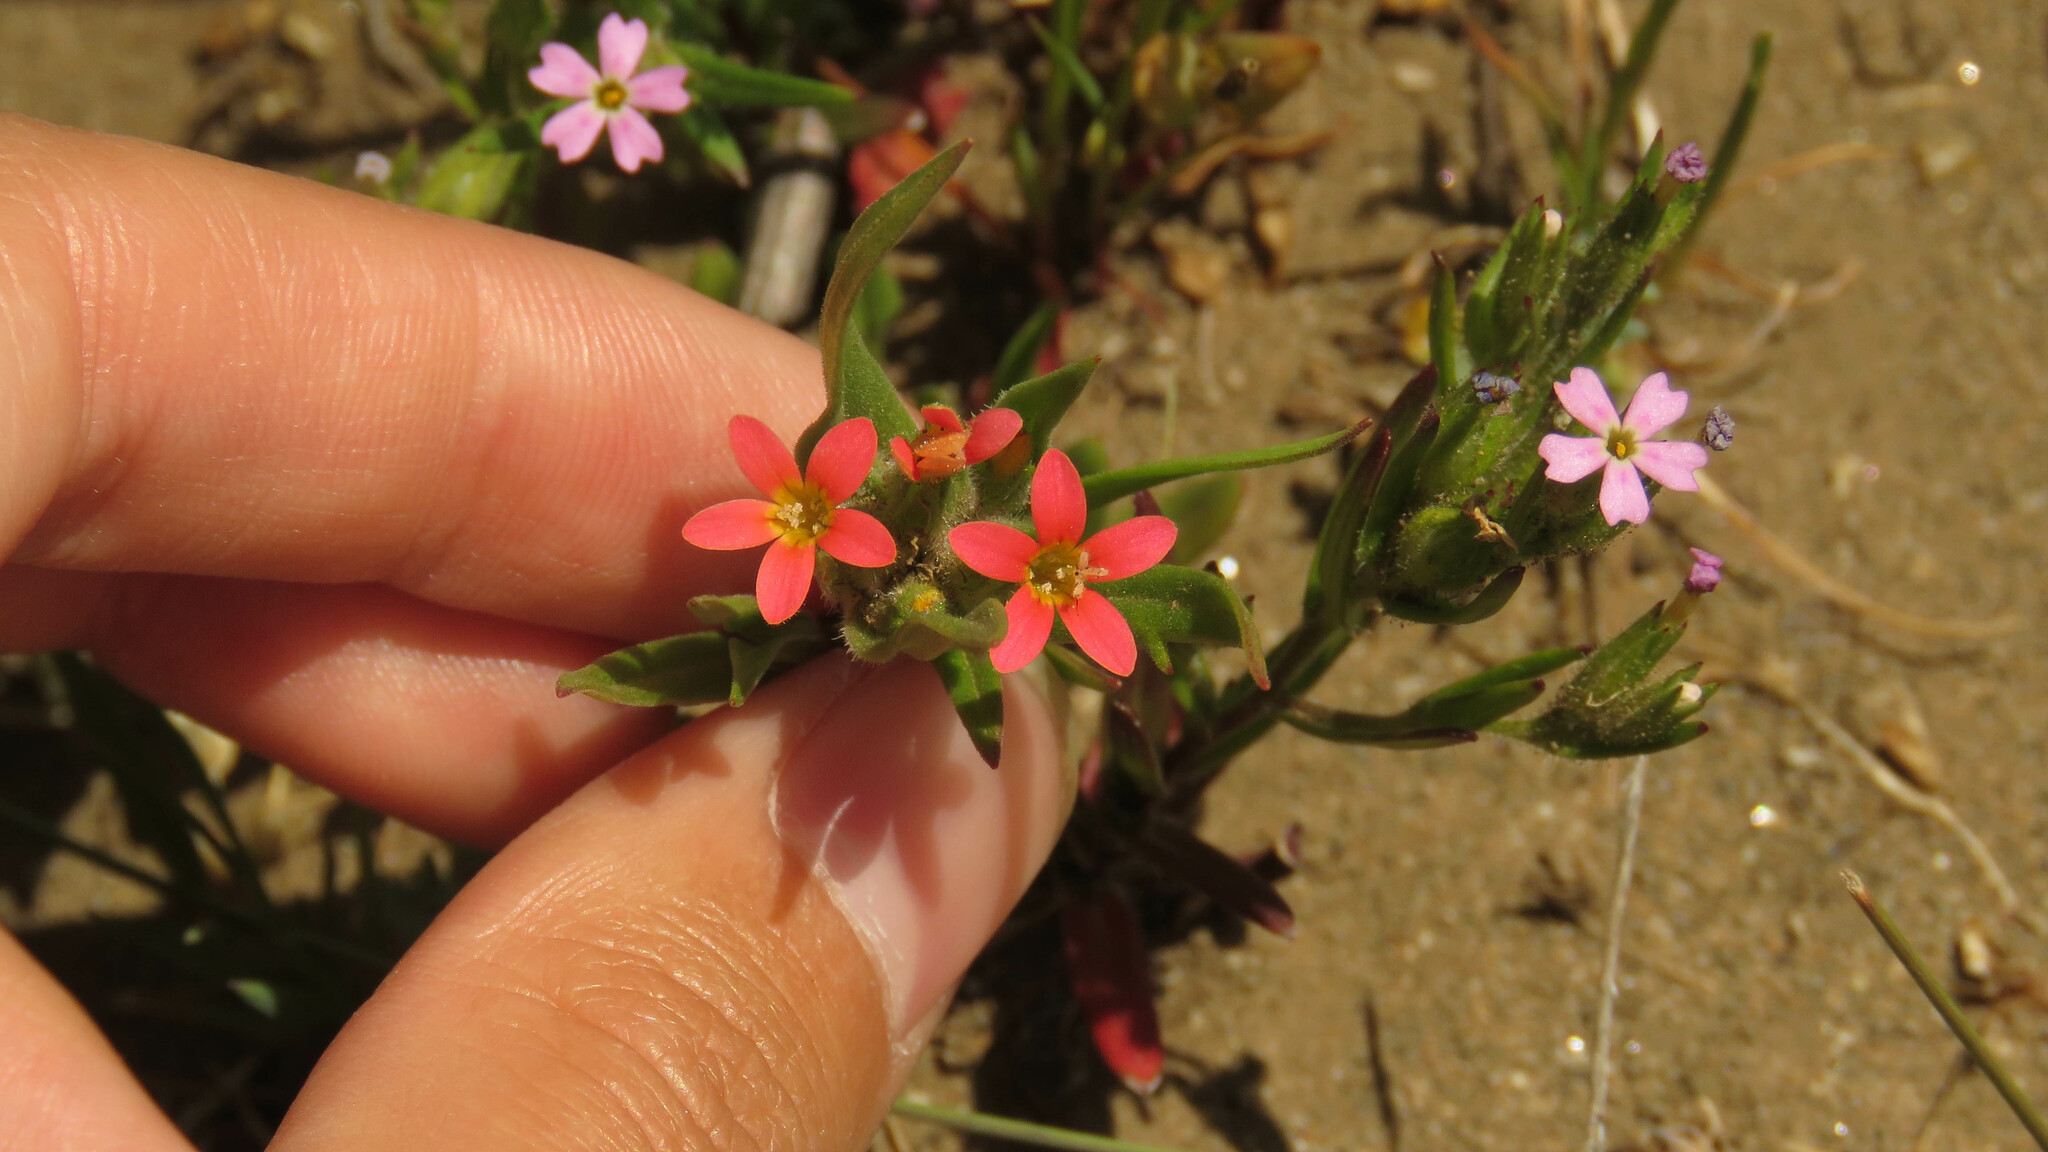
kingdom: Plantae
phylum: Tracheophyta
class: Magnoliopsida
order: Ericales
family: Polemoniaceae
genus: Collomia
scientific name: Collomia biflora
